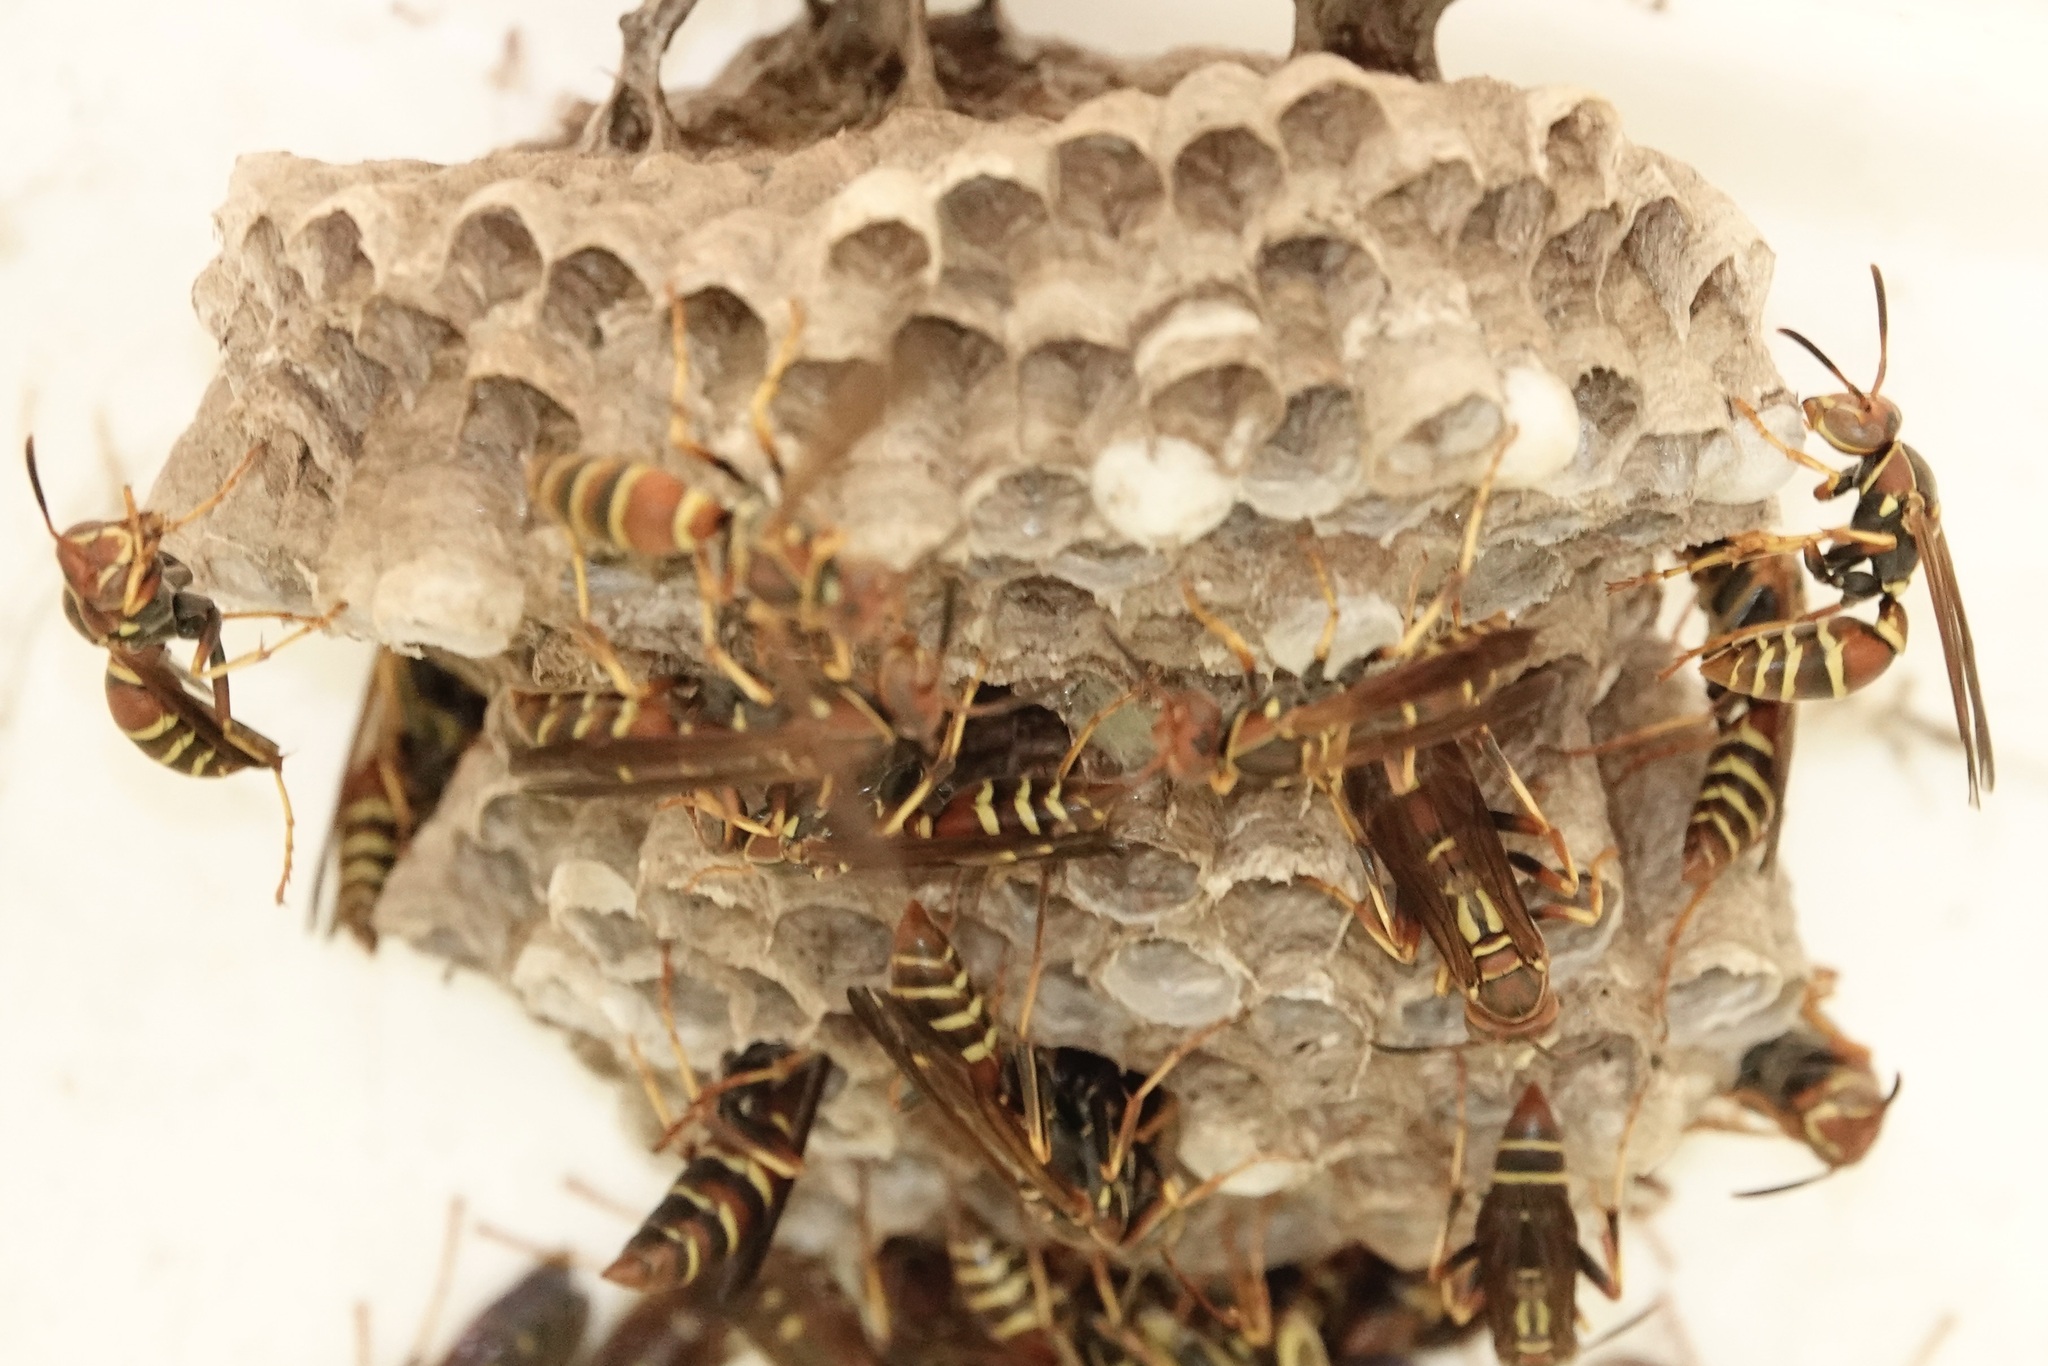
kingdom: Animalia
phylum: Arthropoda
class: Insecta
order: Hymenoptera
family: Eumenidae
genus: Polistes
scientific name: Polistes dorsalis
